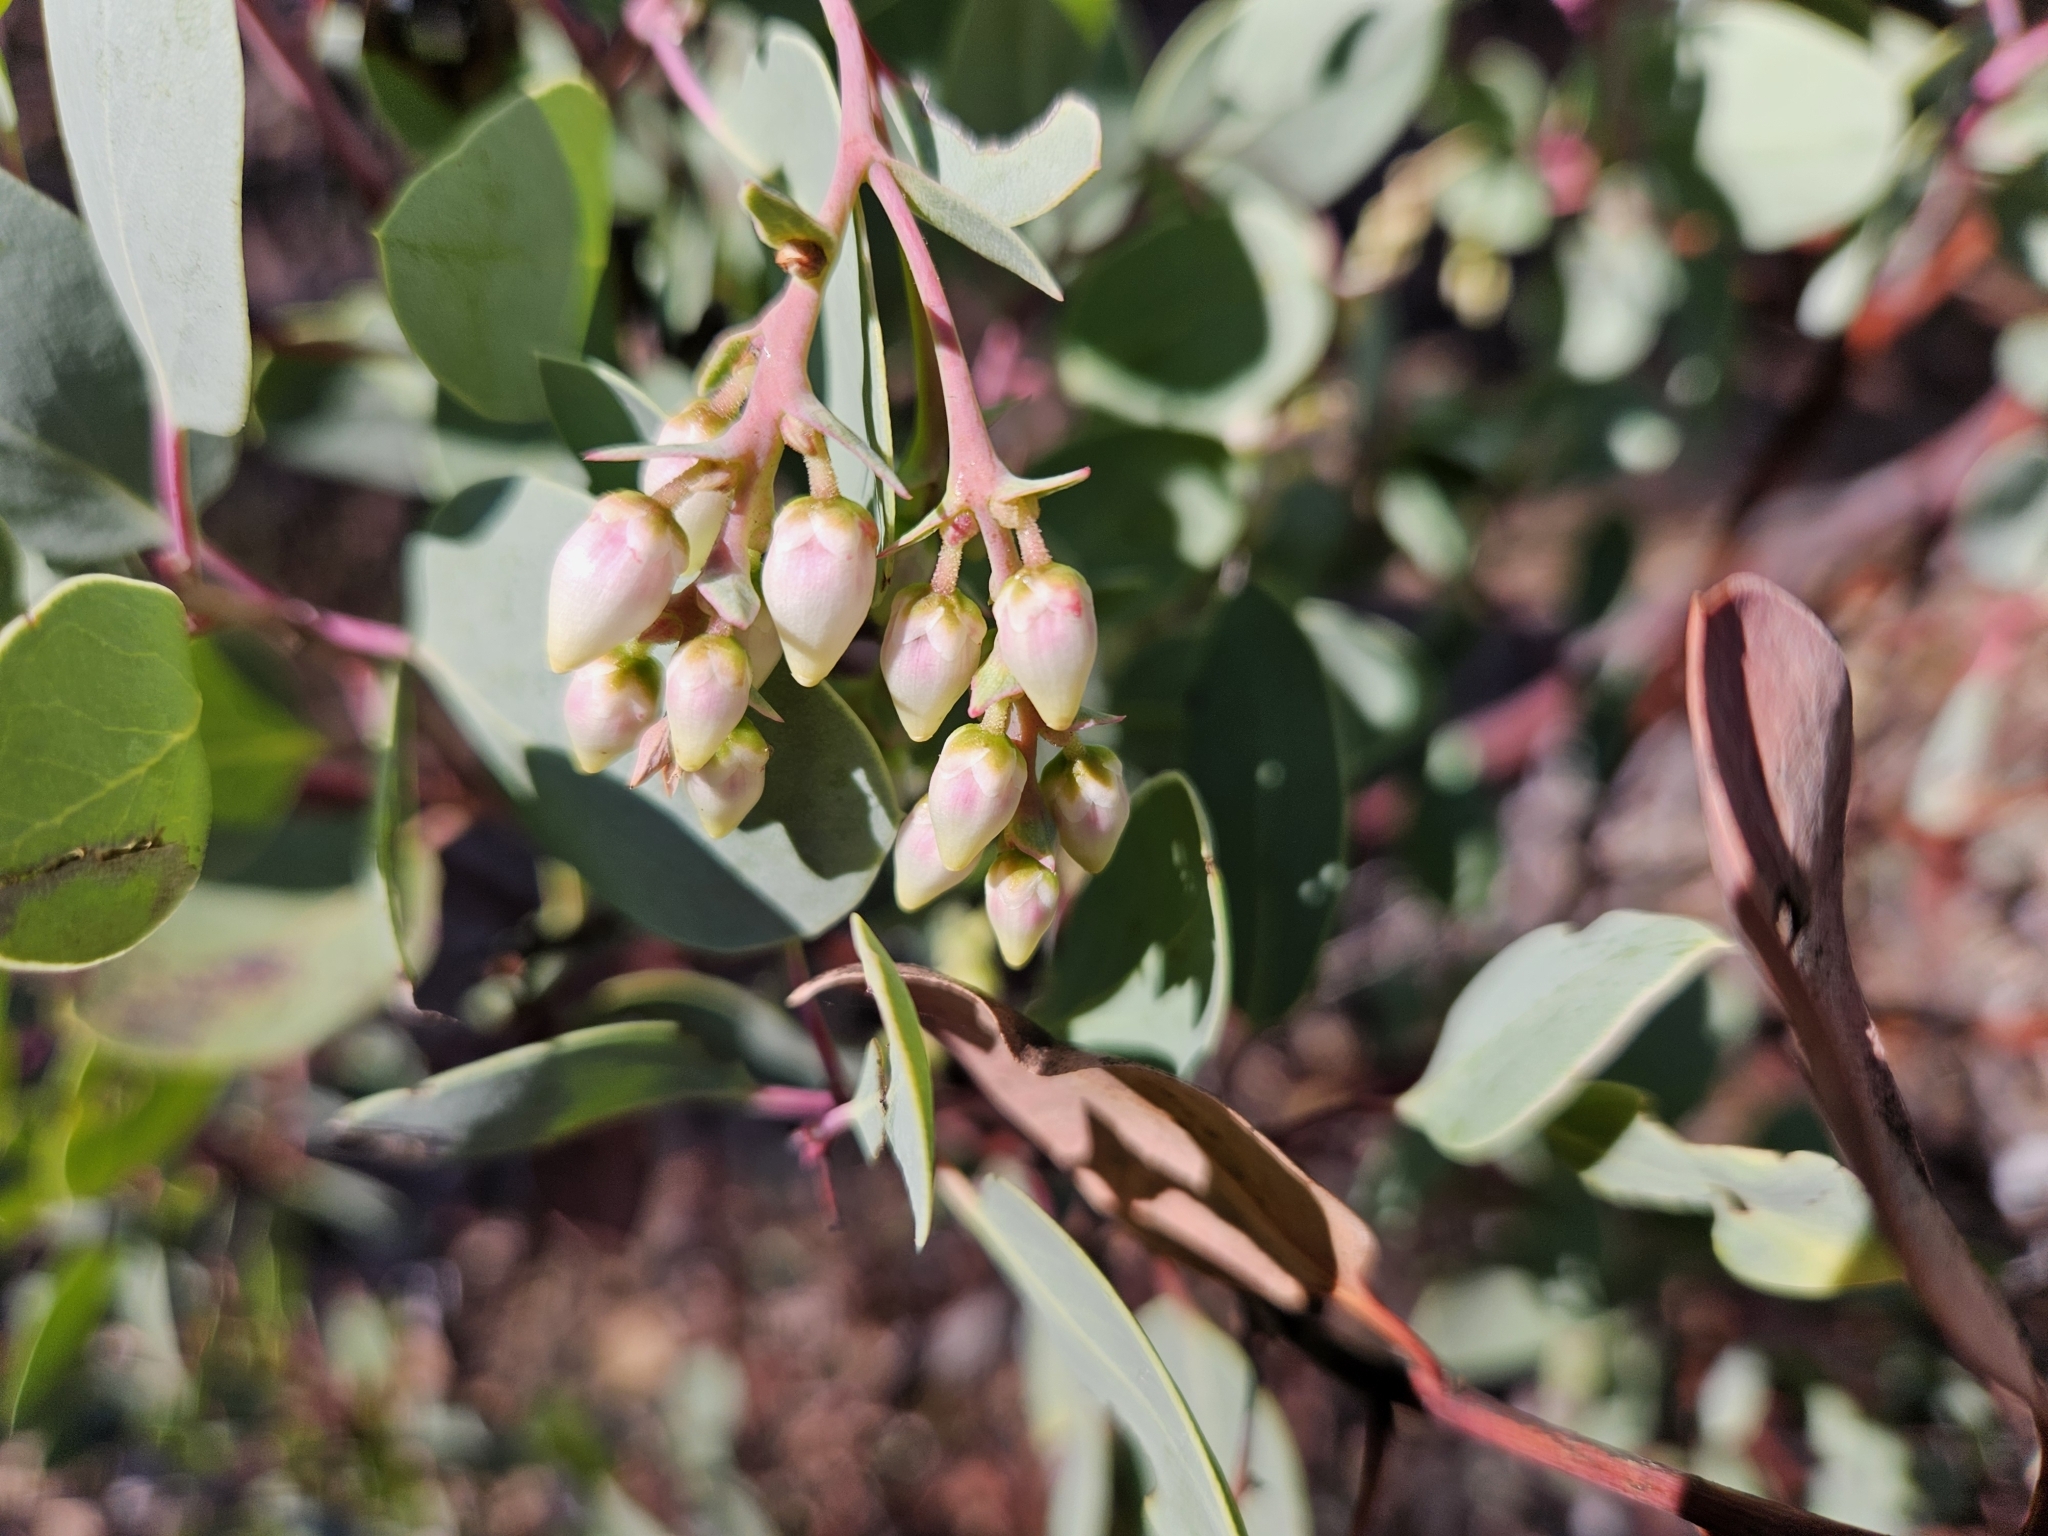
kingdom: Plantae
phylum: Tracheophyta
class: Magnoliopsida
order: Ericales
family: Ericaceae
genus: Arctostaphylos
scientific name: Arctostaphylos glauca
